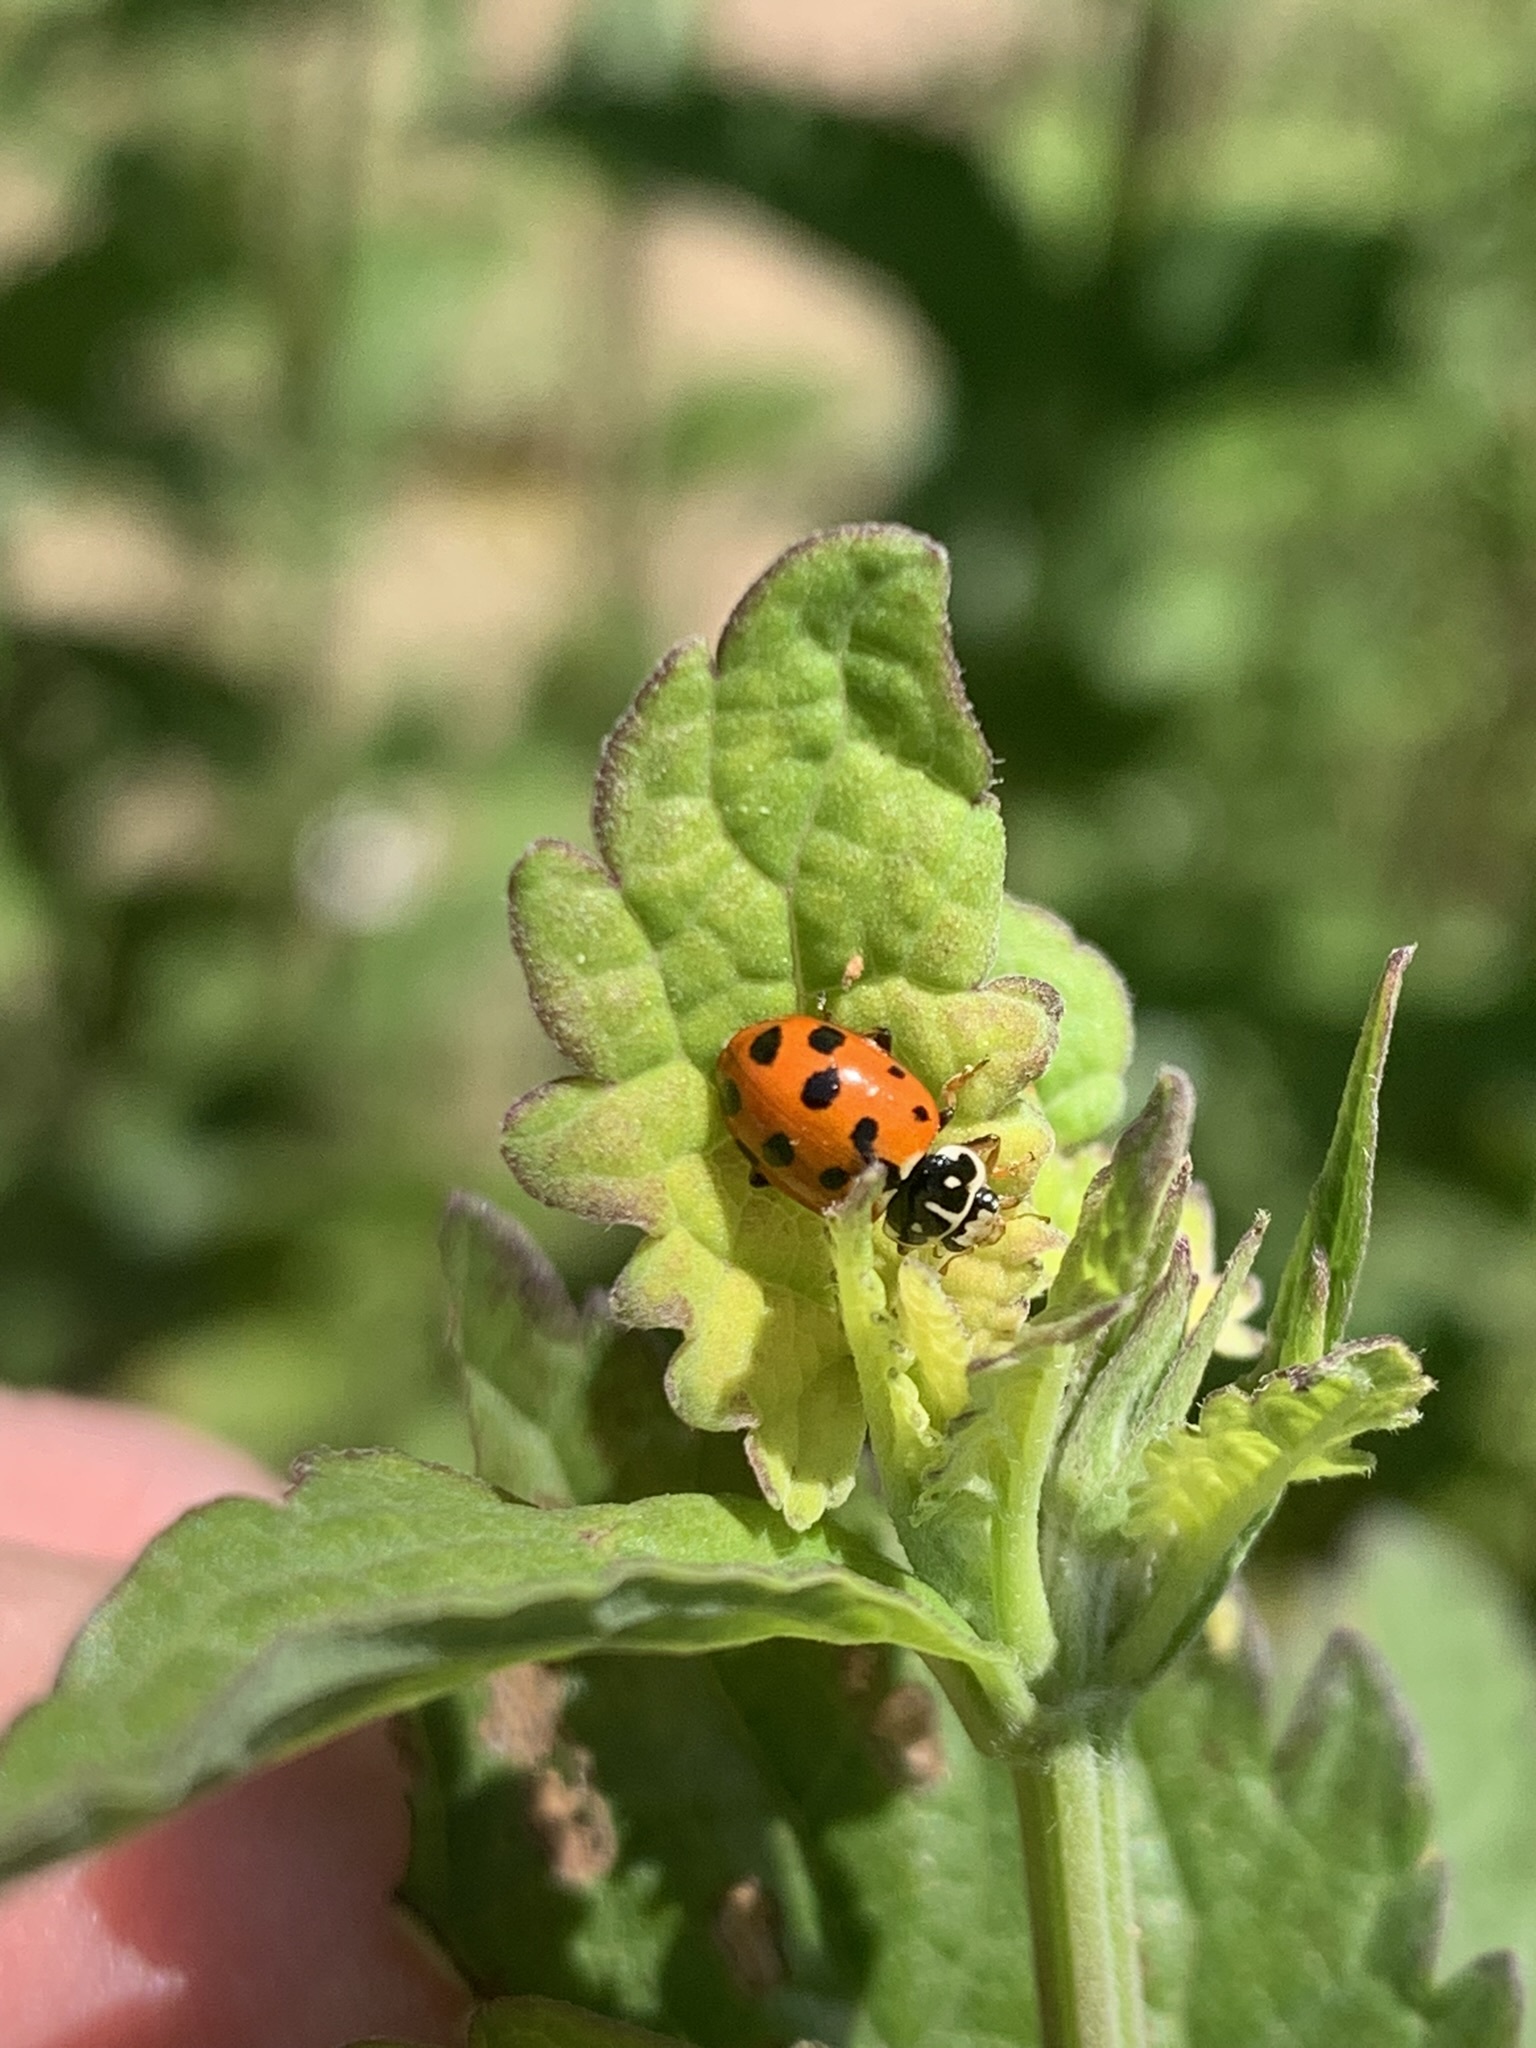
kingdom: Animalia
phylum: Arthropoda
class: Insecta
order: Coleoptera
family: Coccinellidae
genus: Hippodamia
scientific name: Hippodamia variegata
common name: Ladybird beetle
